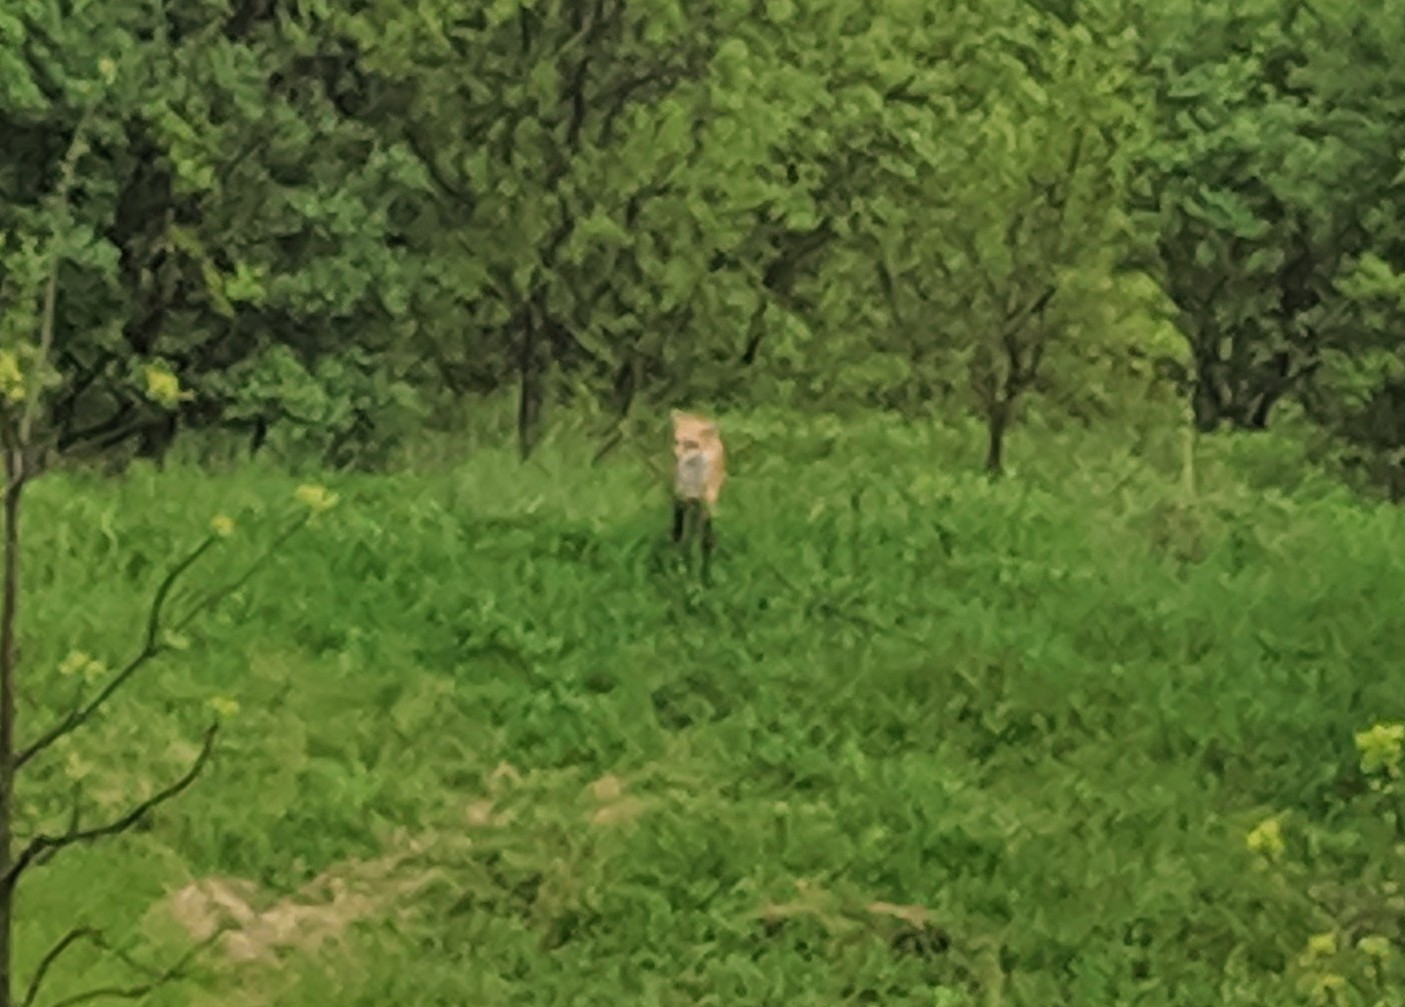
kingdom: Animalia
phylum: Chordata
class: Mammalia
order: Carnivora
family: Canidae
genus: Vulpes
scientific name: Vulpes vulpes
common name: Red fox
